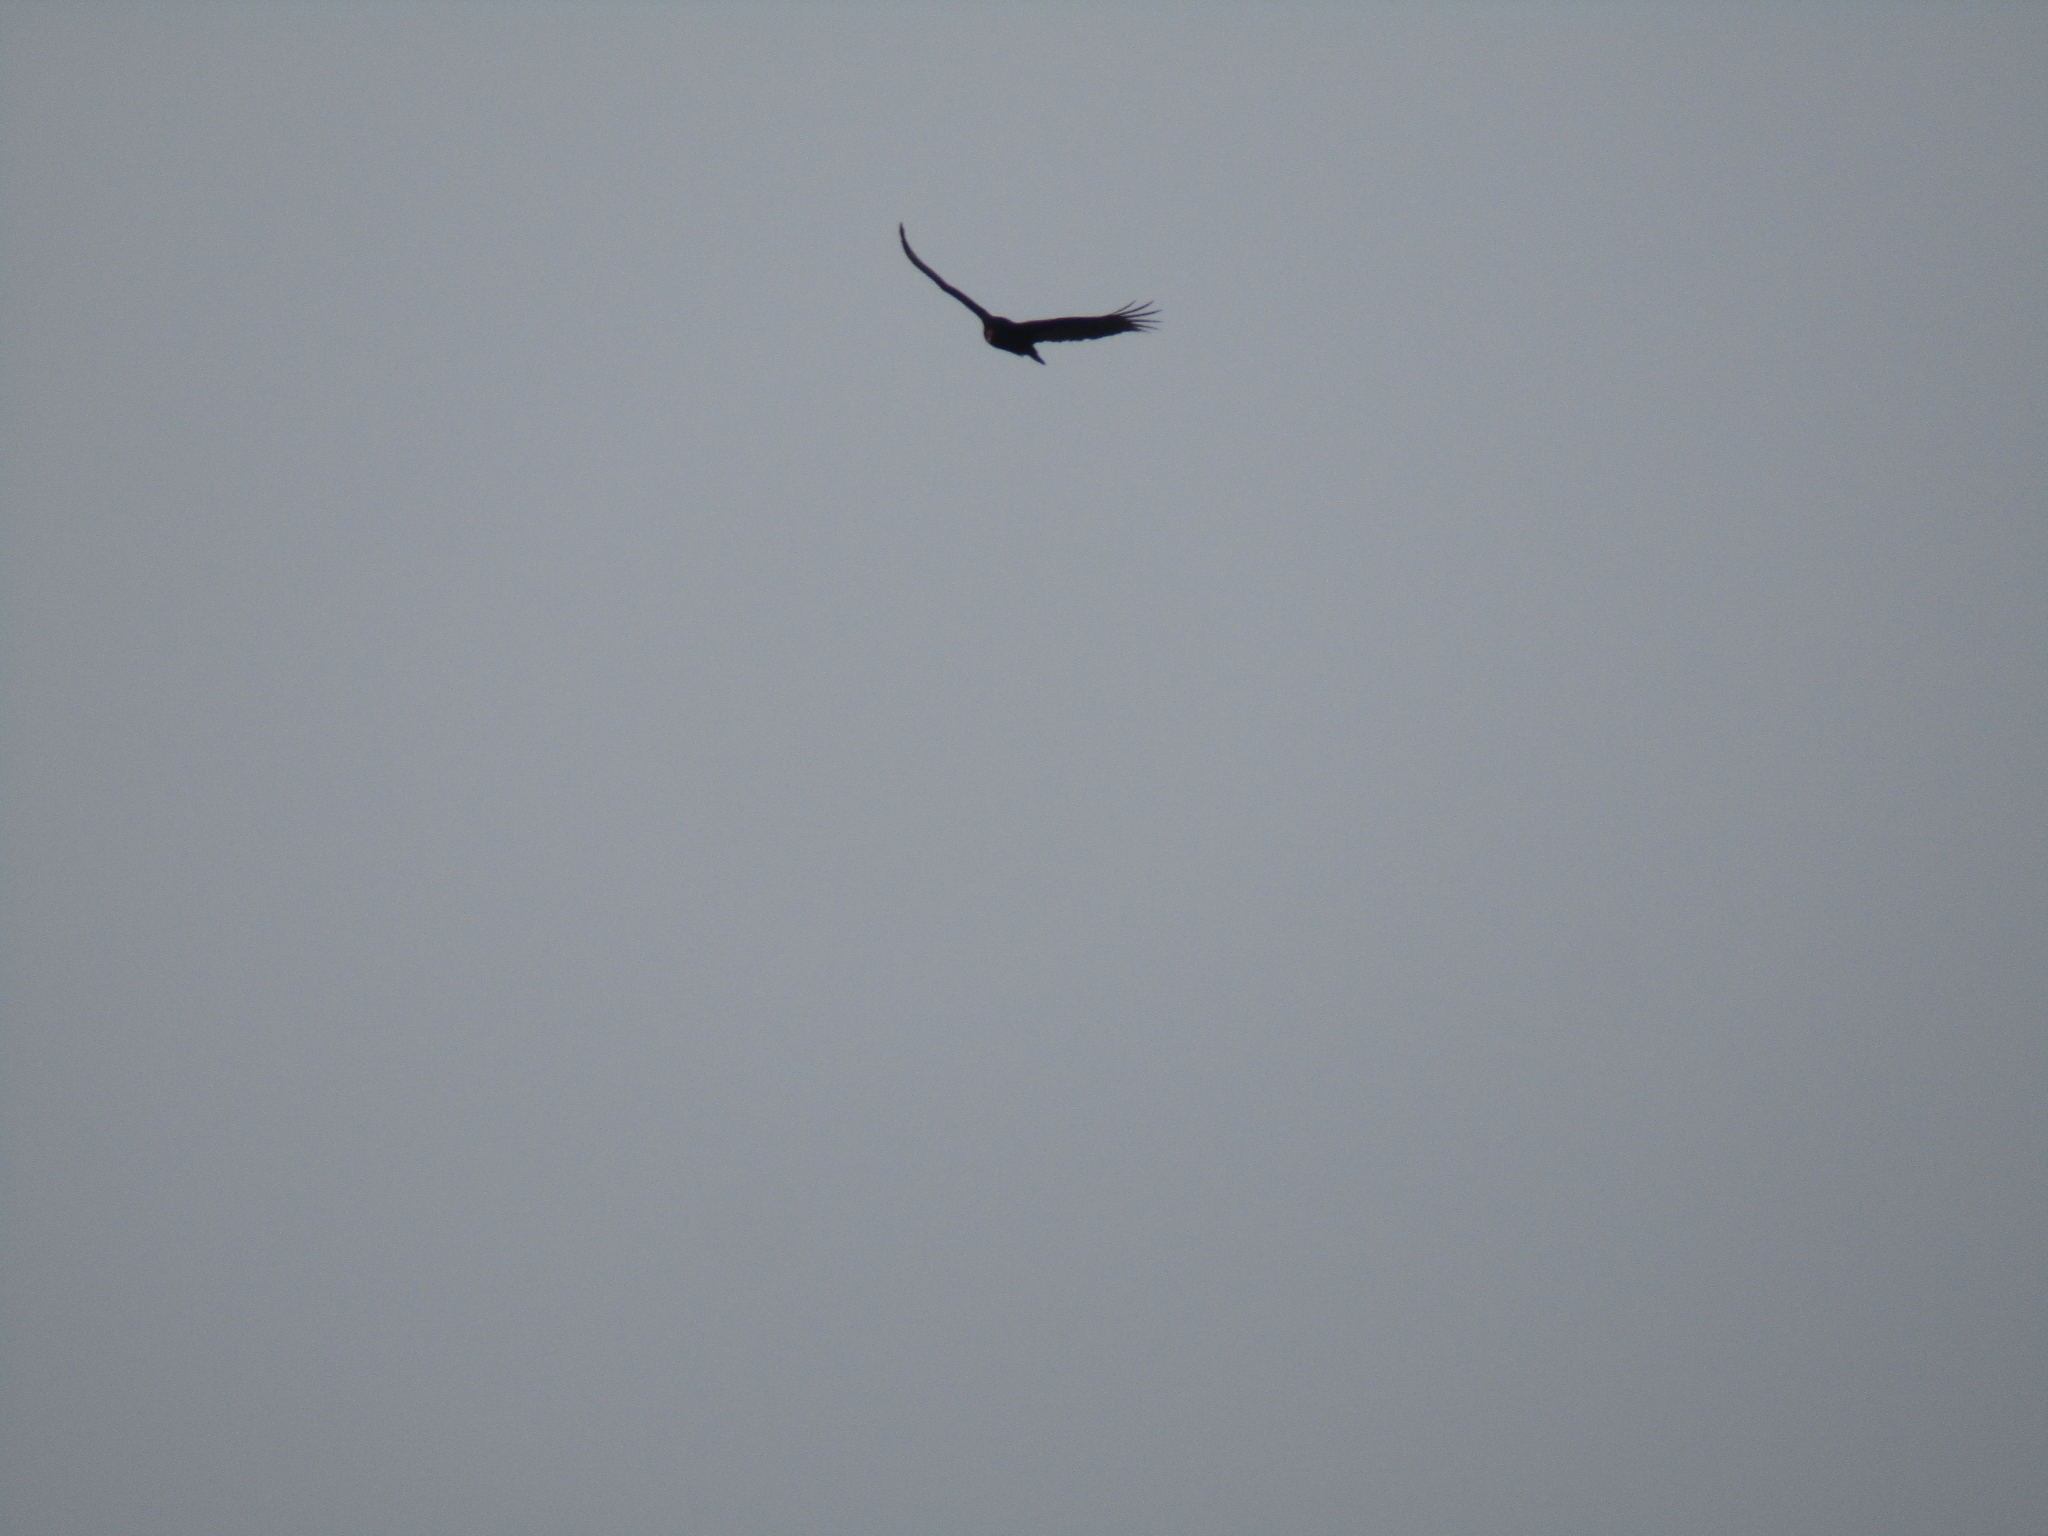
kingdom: Animalia
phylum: Chordata
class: Aves
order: Accipitriformes
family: Cathartidae
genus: Cathartes
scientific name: Cathartes aura
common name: Turkey vulture
